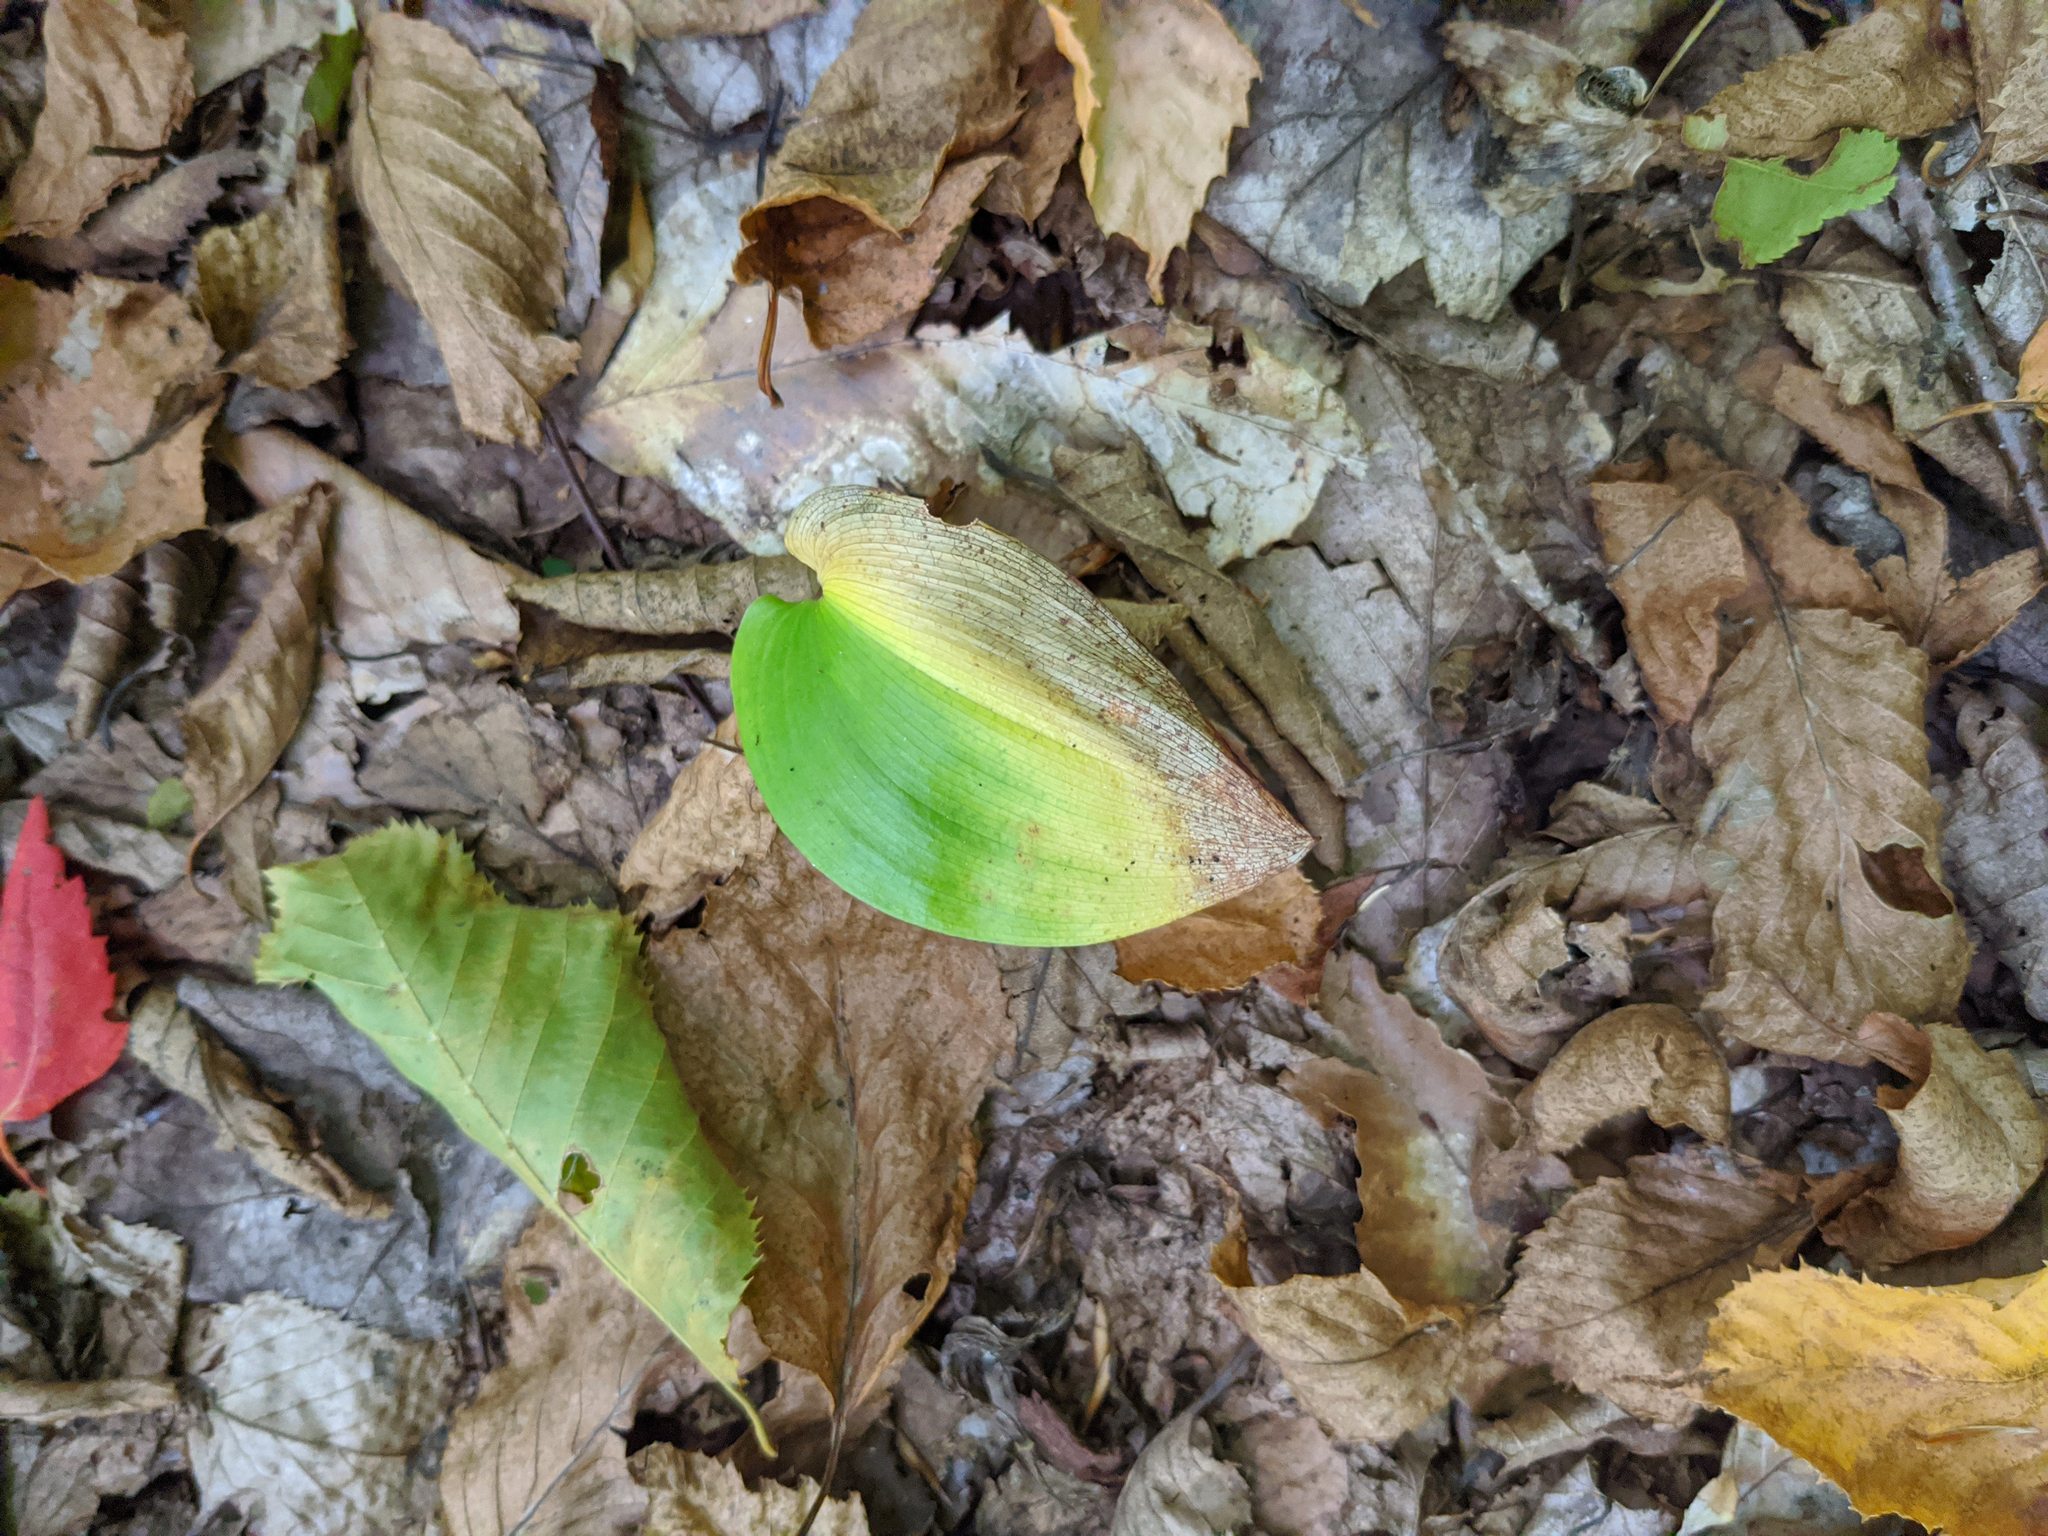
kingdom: Plantae
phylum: Tracheophyta
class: Liliopsida
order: Asparagales
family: Asparagaceae
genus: Maianthemum
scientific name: Maianthemum canadense
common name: False lily-of-the-valley
